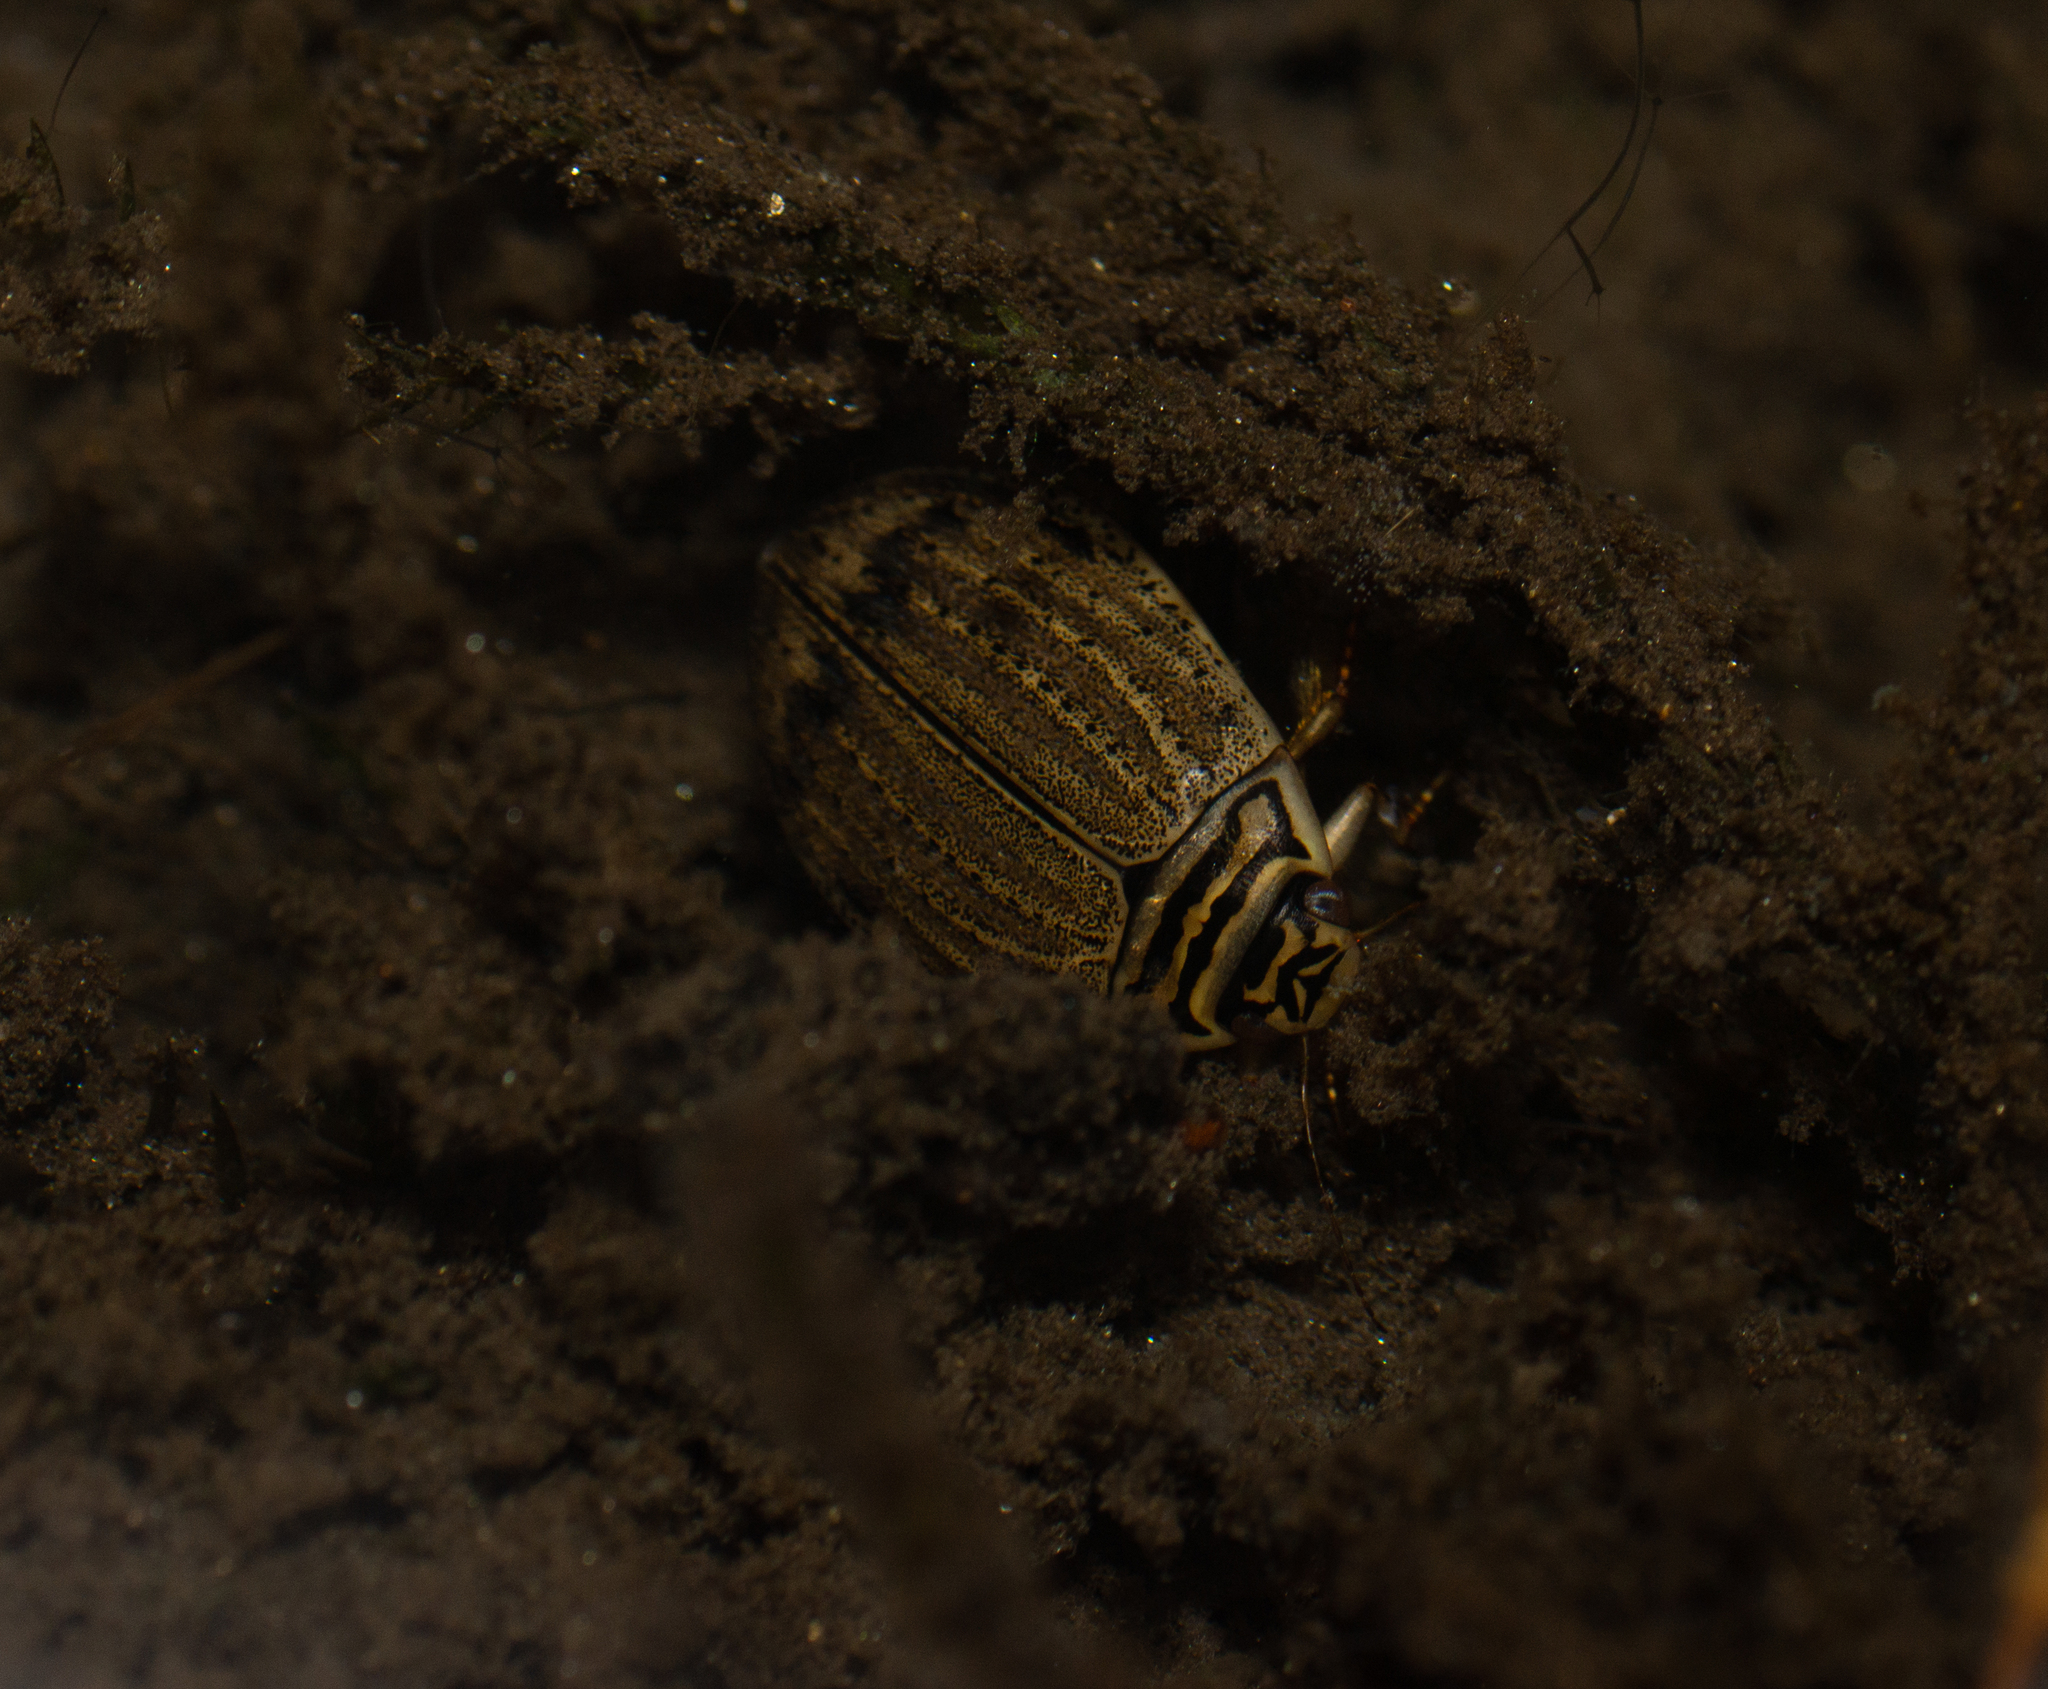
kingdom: Animalia
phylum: Arthropoda
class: Insecta
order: Coleoptera
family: Dytiscidae
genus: Acilius
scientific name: Acilius sulcatus
